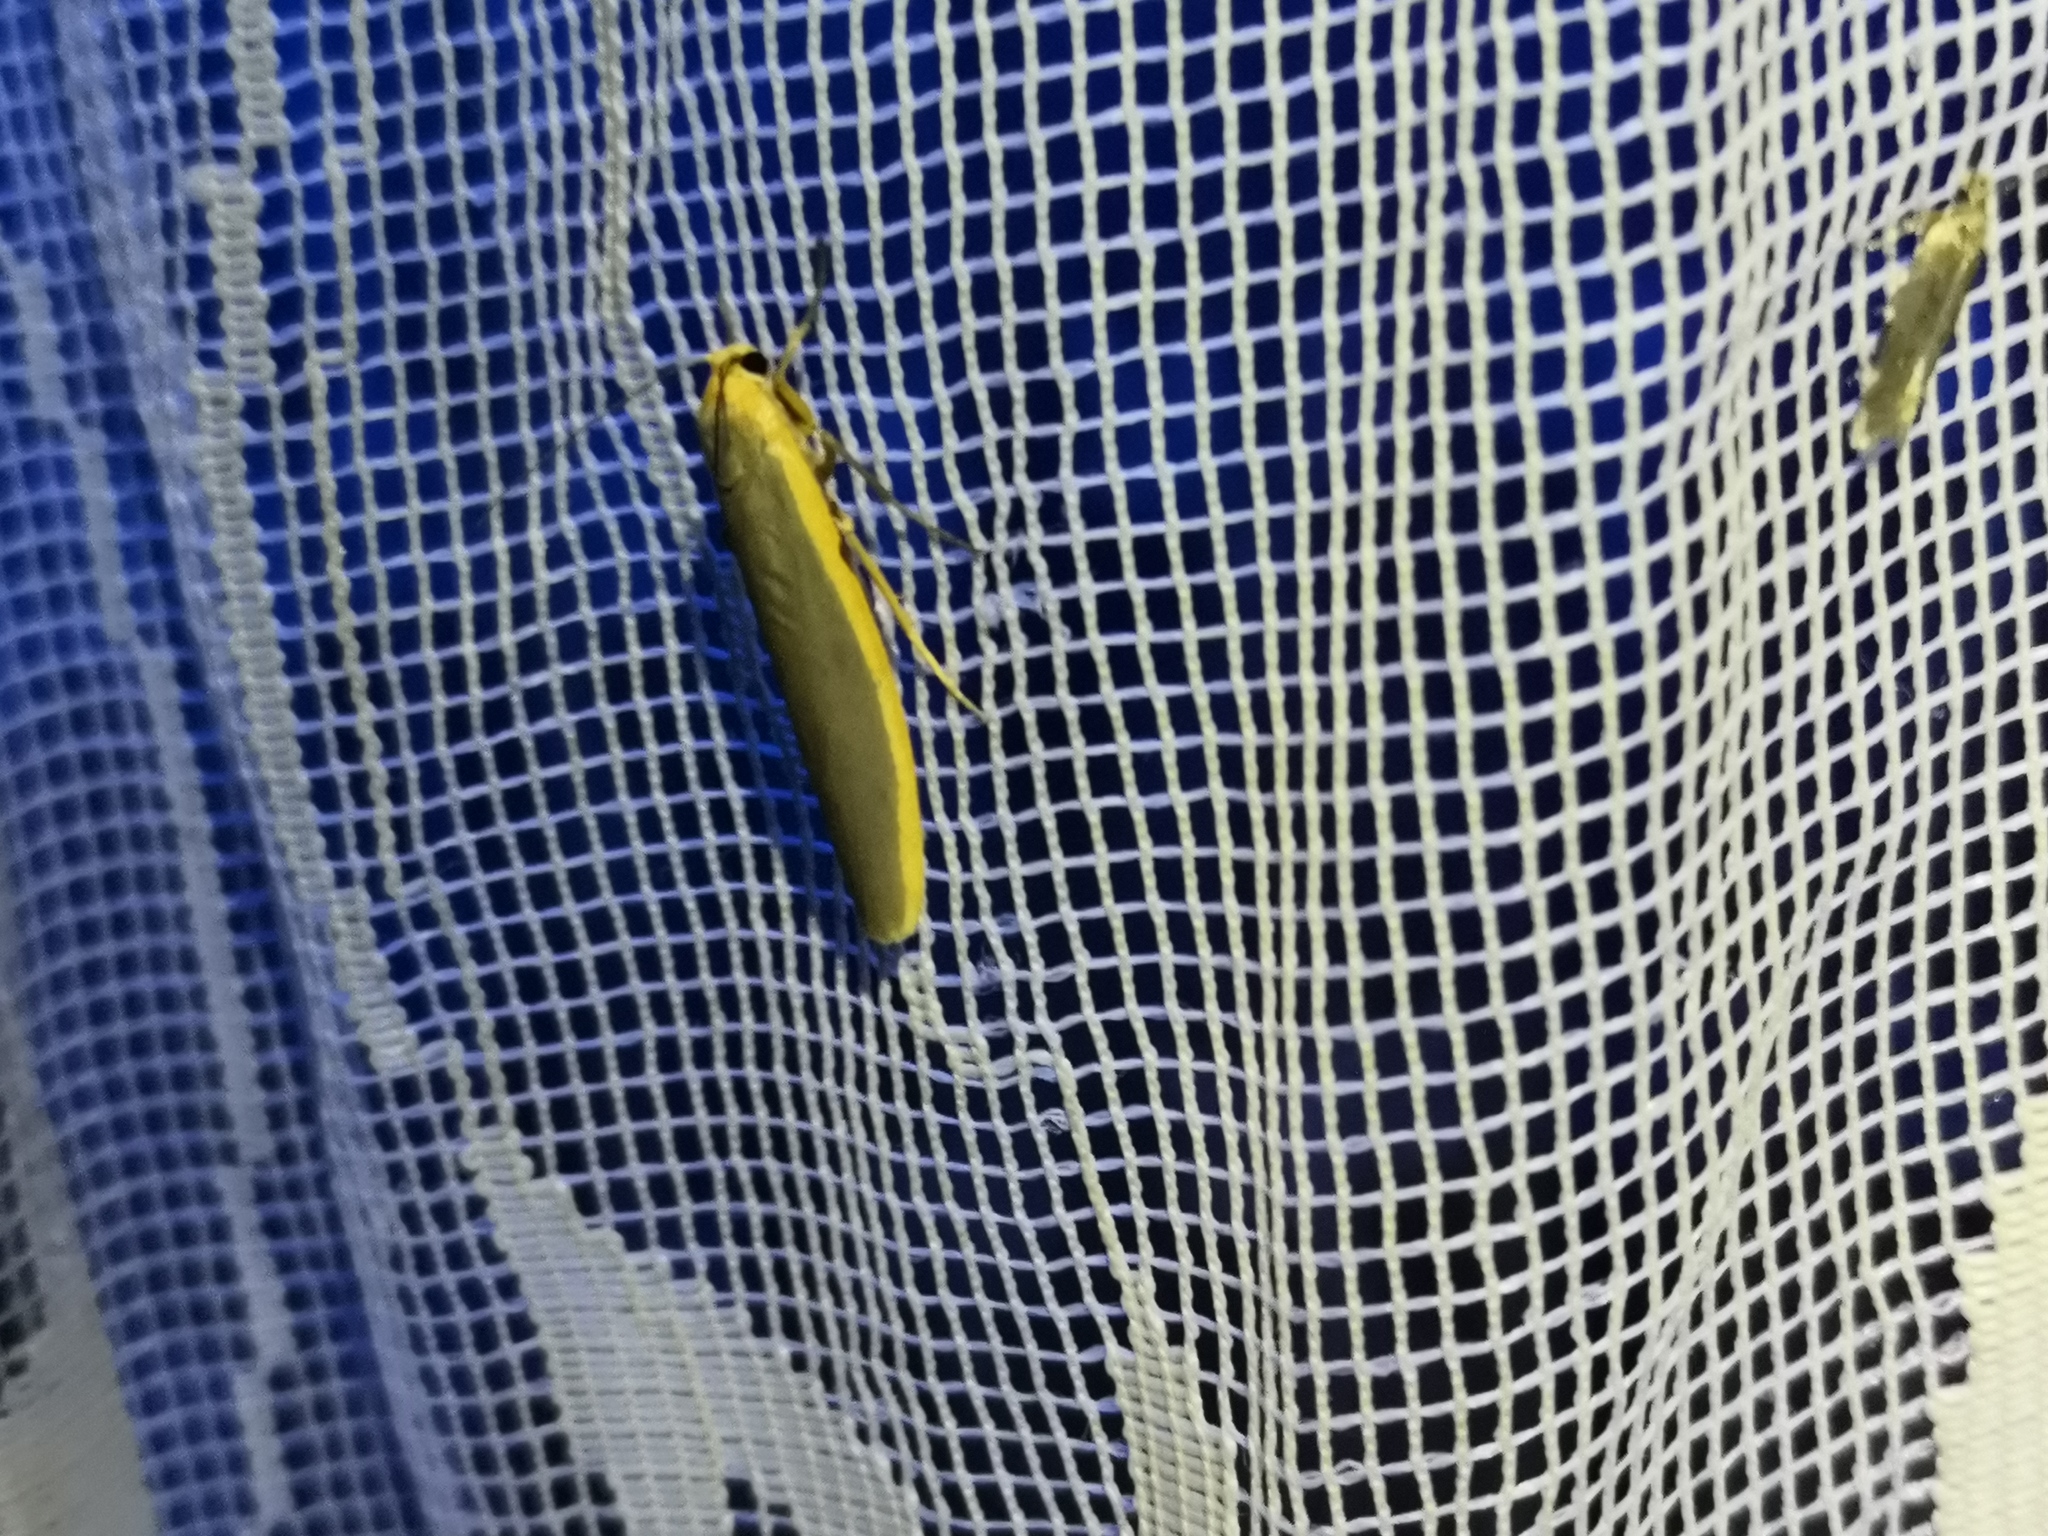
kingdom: Animalia
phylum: Arthropoda
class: Insecta
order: Lepidoptera
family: Erebidae
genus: Manulea
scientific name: Manulea complana
